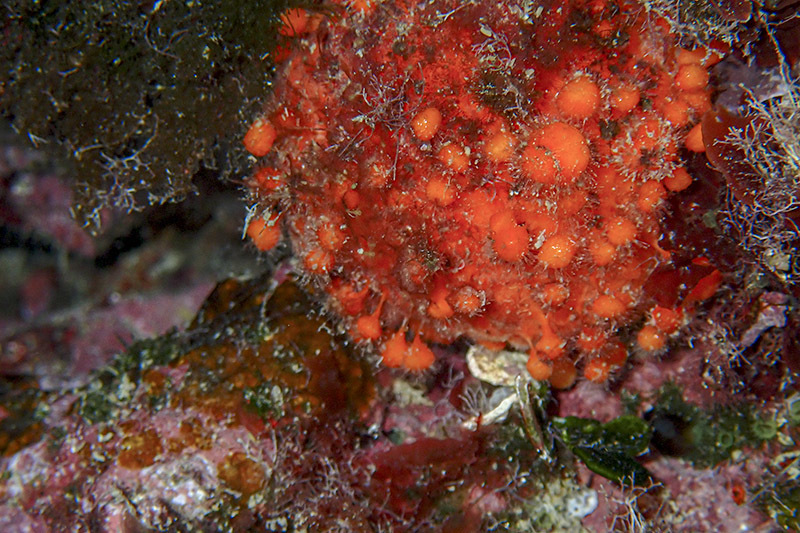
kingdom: Animalia
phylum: Porifera
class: Demospongiae
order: Tethyida
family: Tethyidae
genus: Tethya
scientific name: Tethya aurantium
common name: Golf ball sponge
